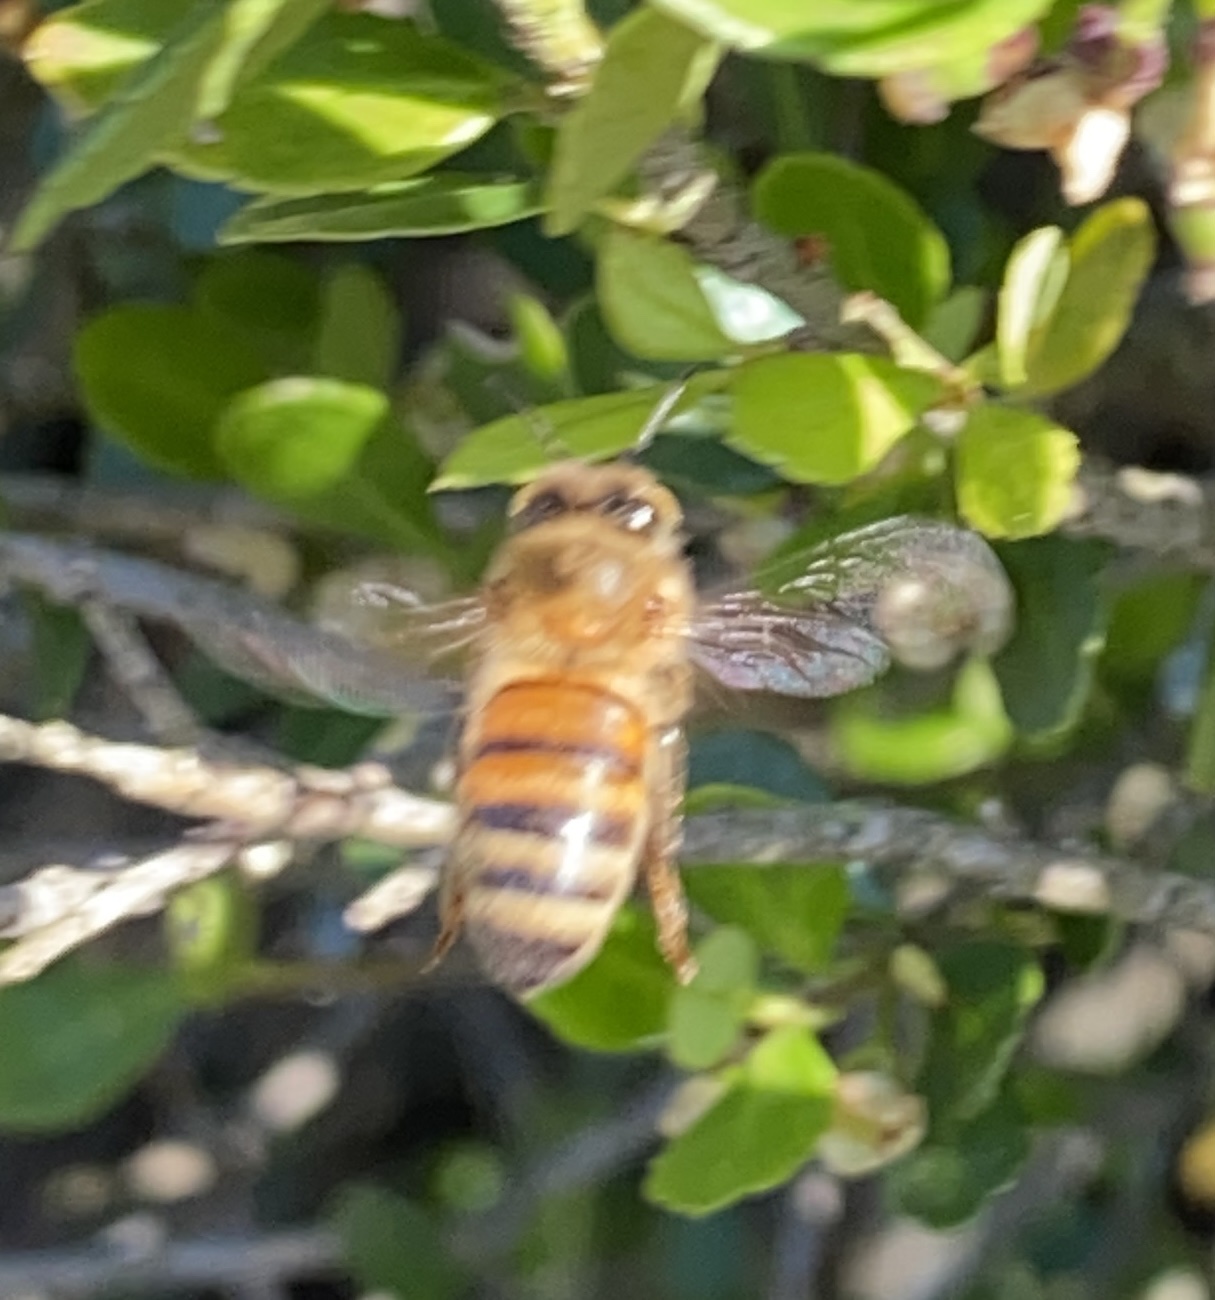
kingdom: Animalia
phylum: Arthropoda
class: Insecta
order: Hymenoptera
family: Apidae
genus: Apis
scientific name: Apis mellifera
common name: Honey bee
